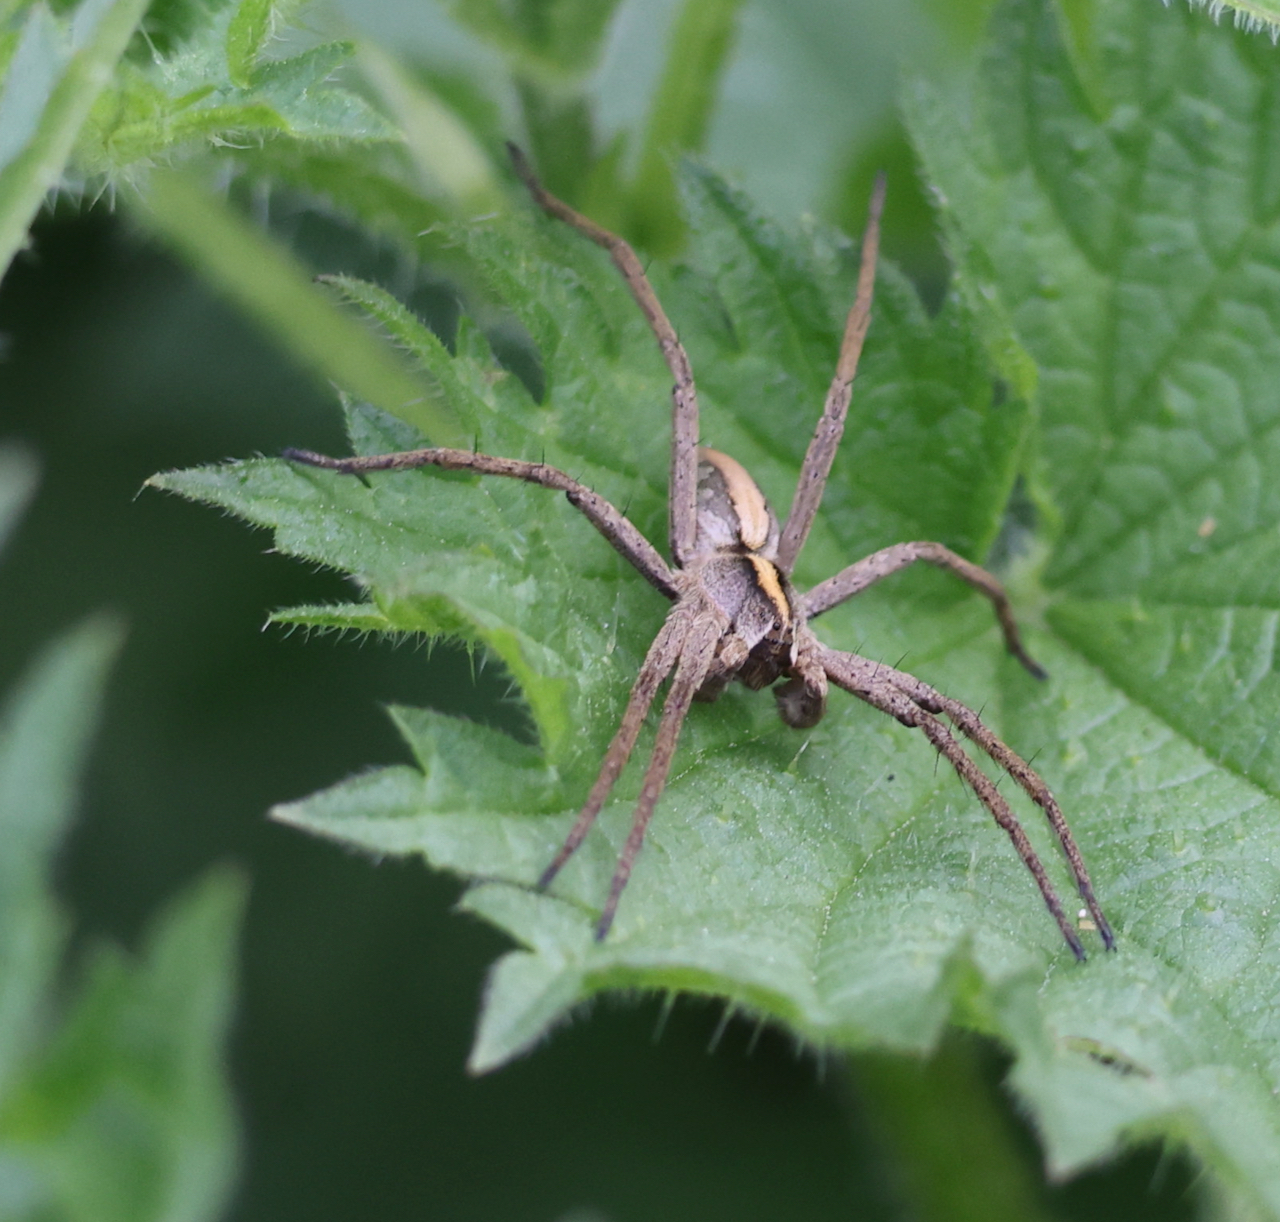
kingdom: Animalia
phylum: Arthropoda
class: Arachnida
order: Araneae
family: Pisauridae
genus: Pisaura
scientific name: Pisaura mirabilis
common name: Tent spider
